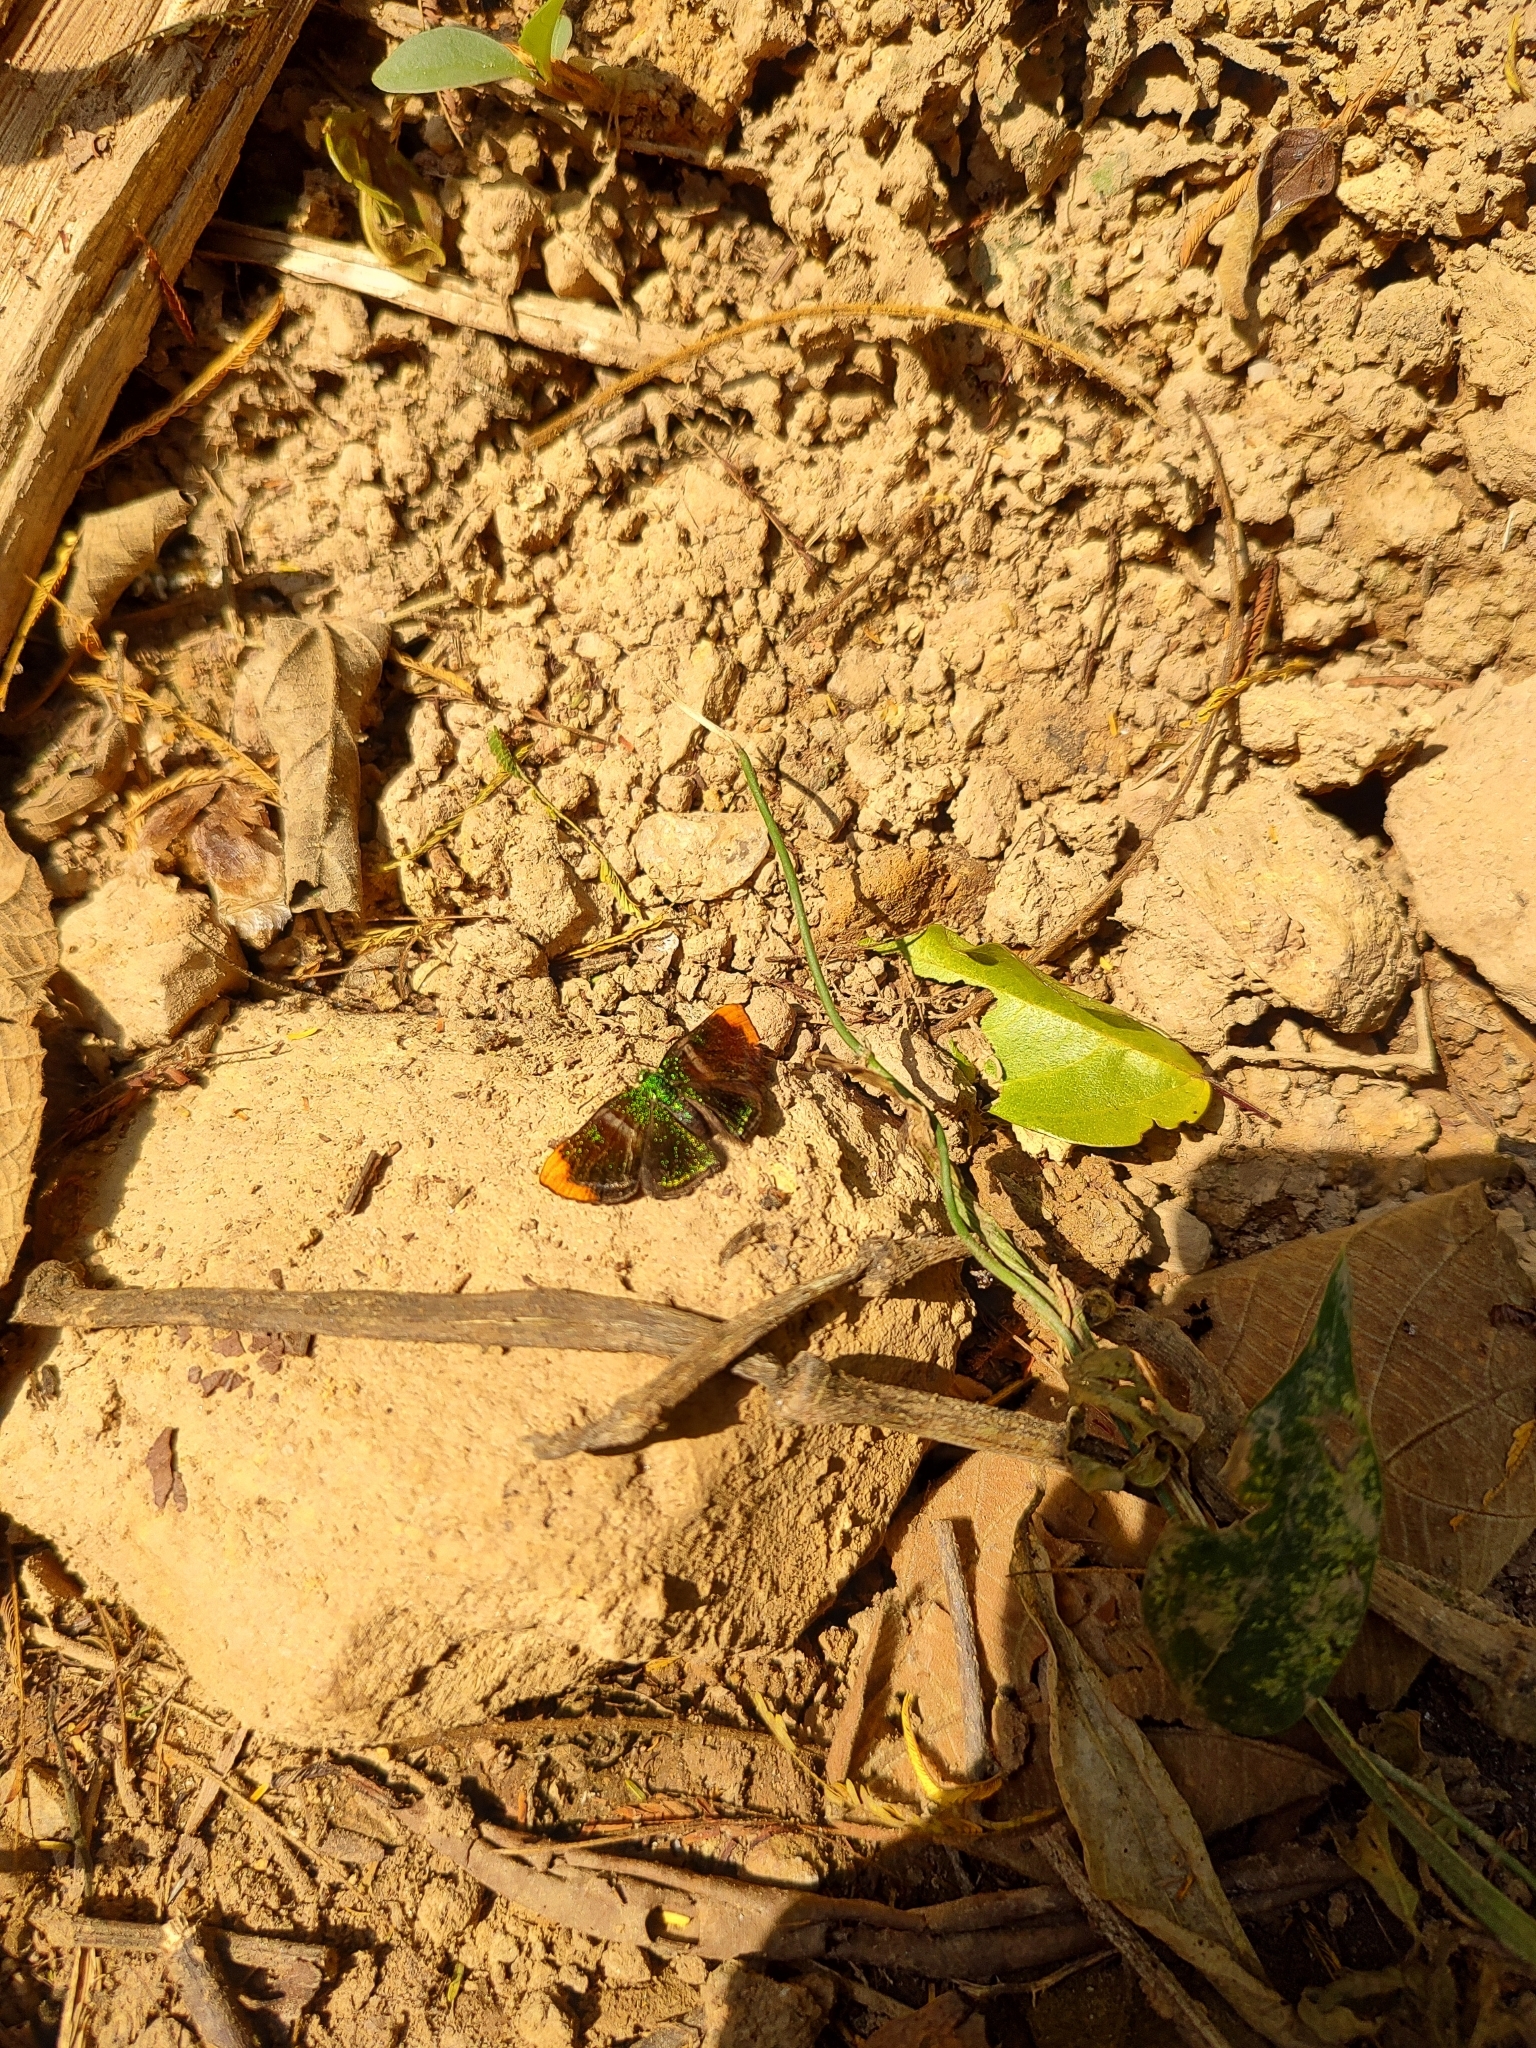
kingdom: Animalia
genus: Caria
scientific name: Caria plutargus
